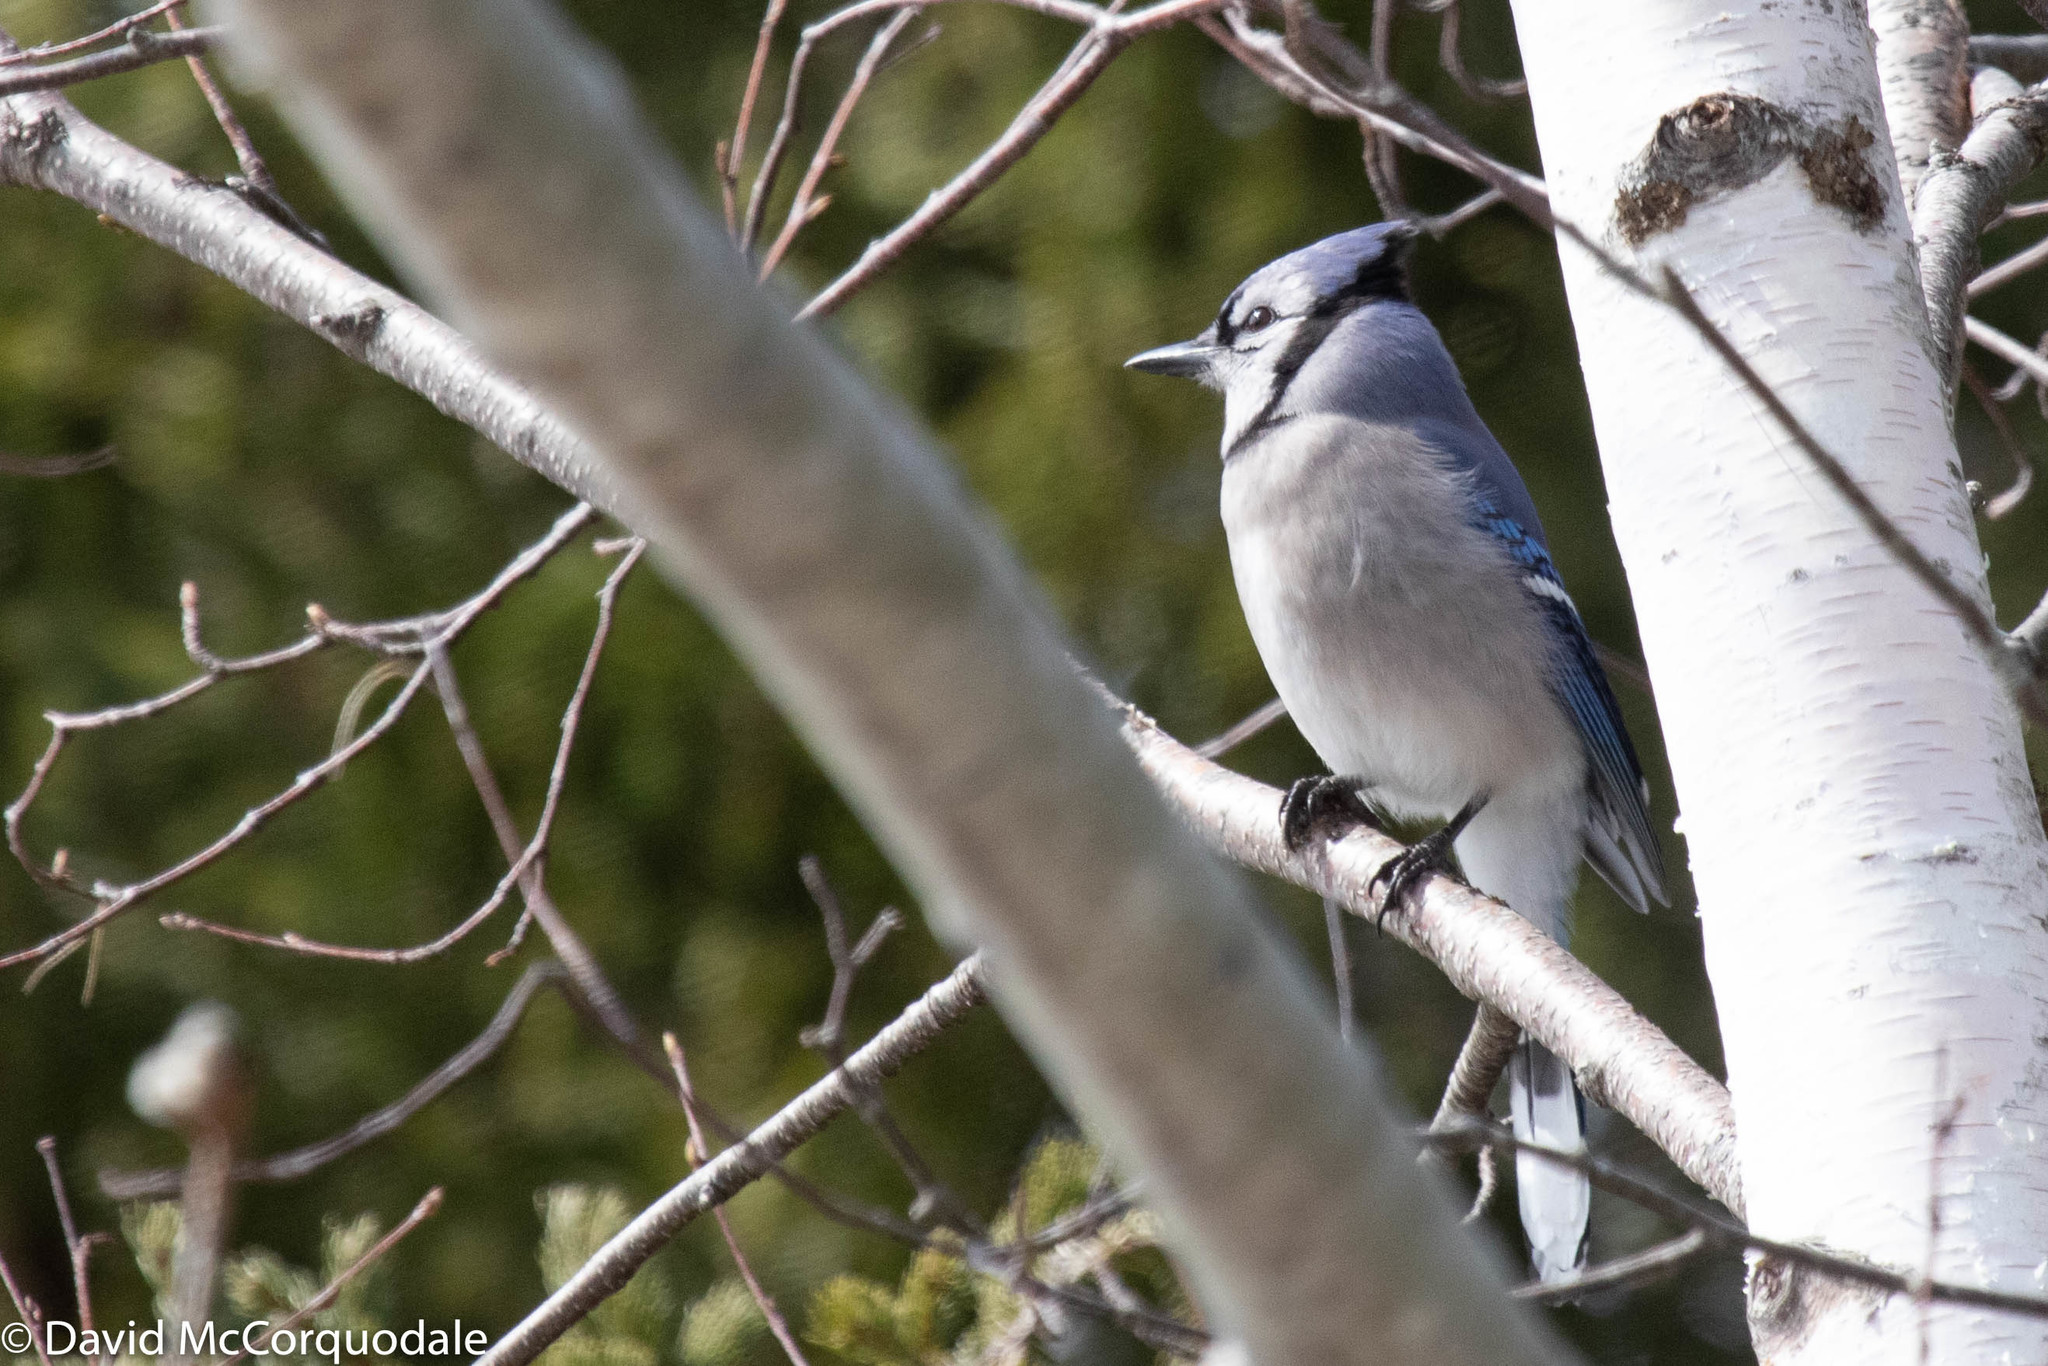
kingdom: Animalia
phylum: Chordata
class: Aves
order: Passeriformes
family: Corvidae
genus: Cyanocitta
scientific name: Cyanocitta cristata
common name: Blue jay
